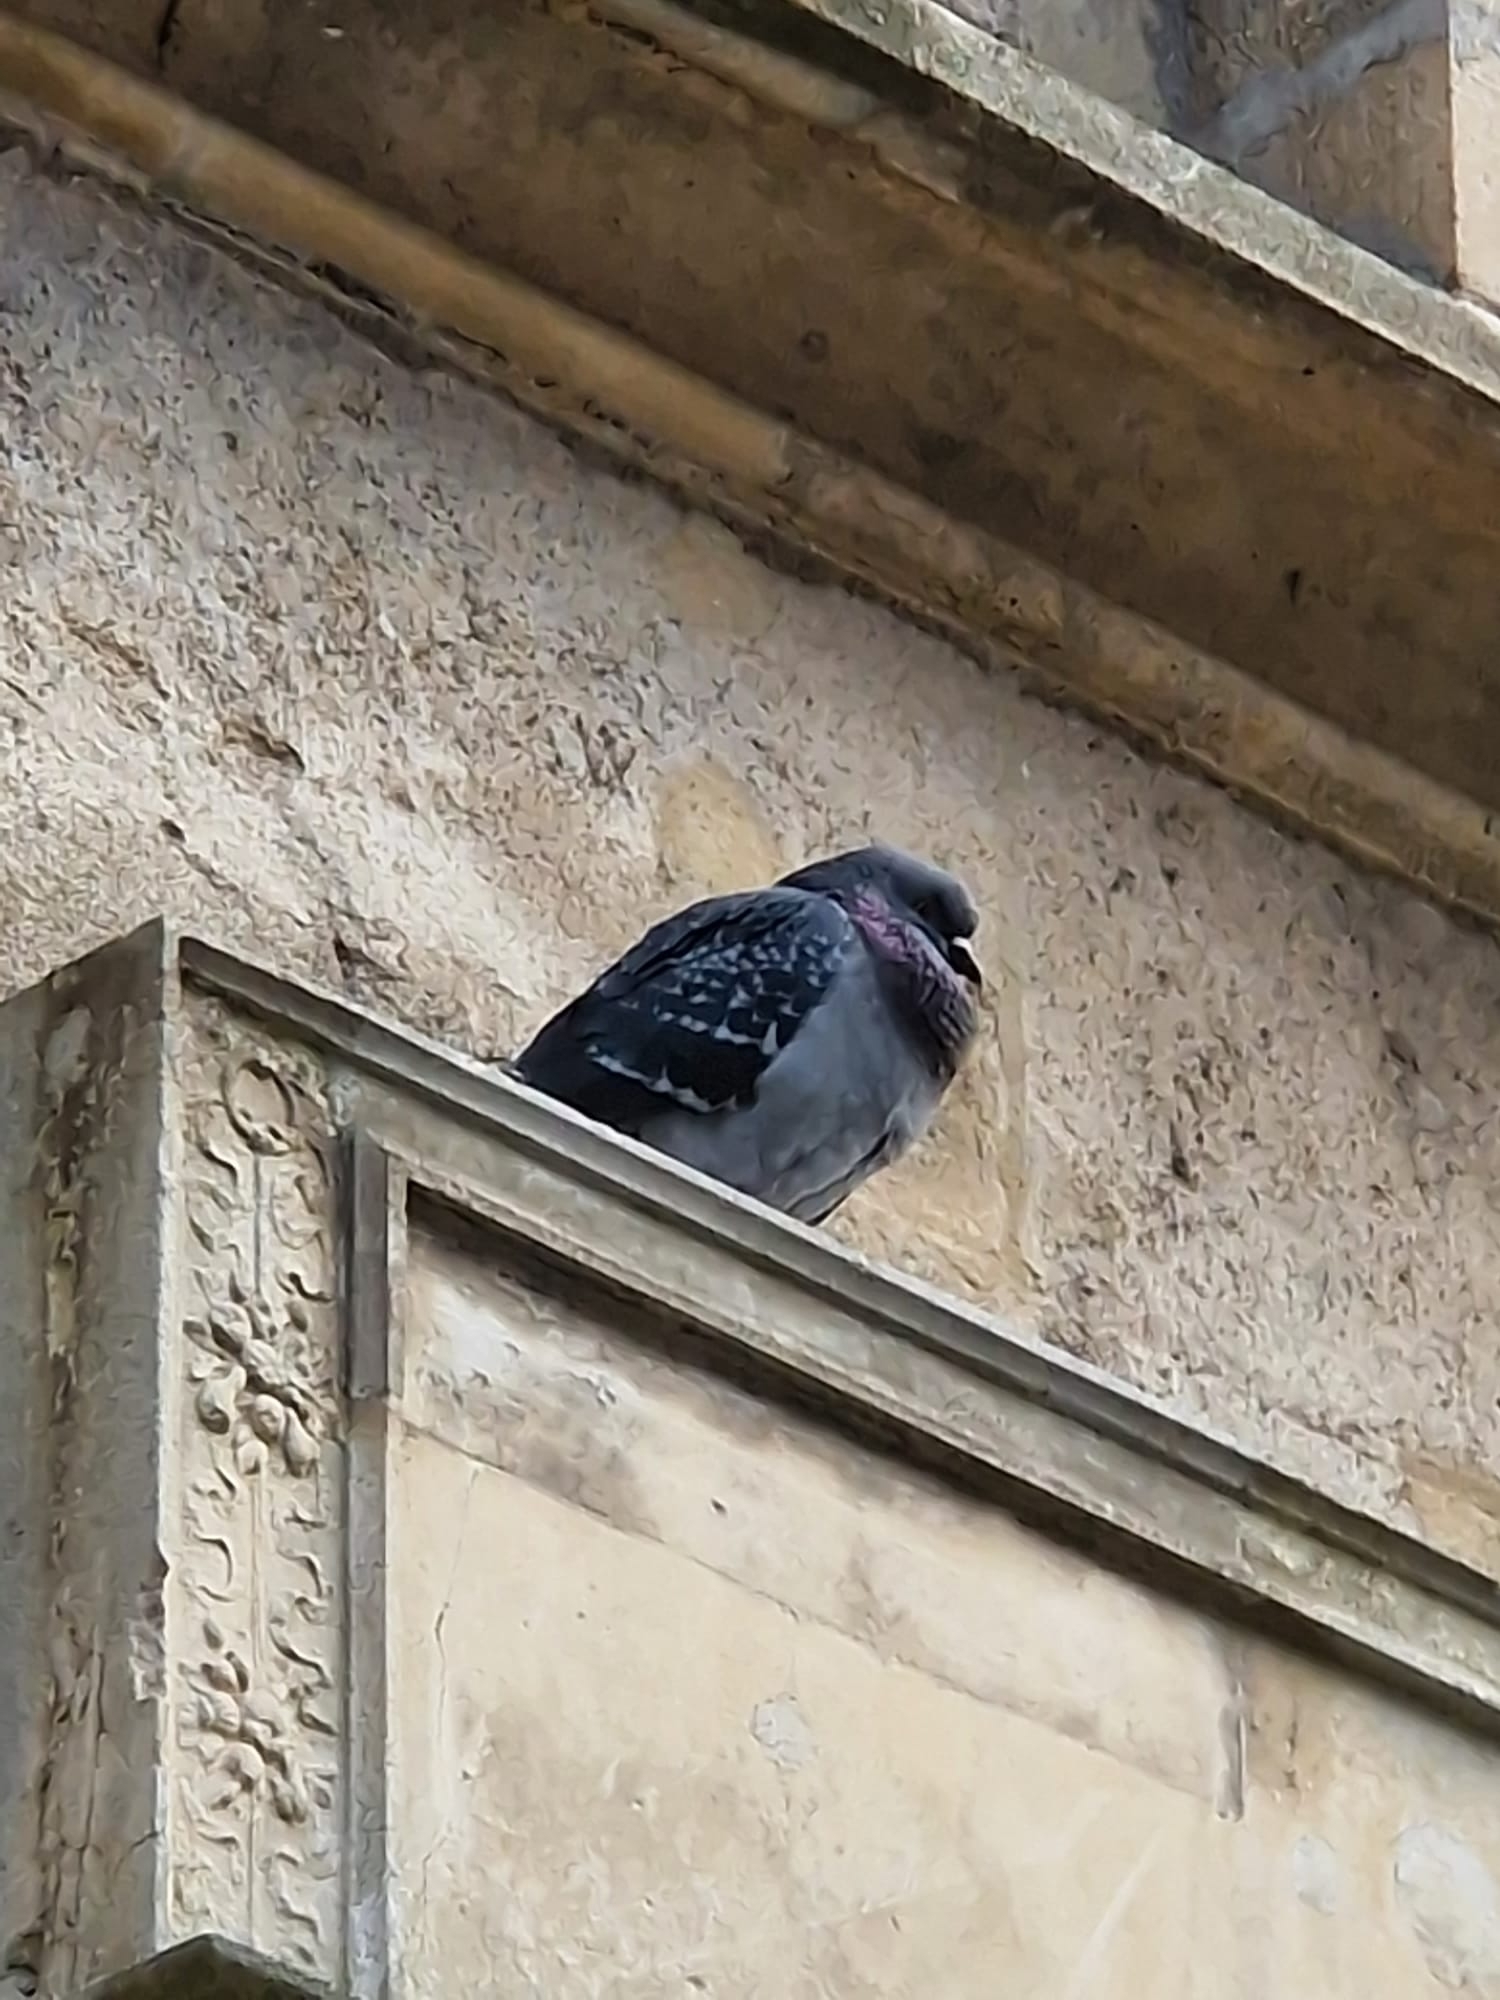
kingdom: Animalia
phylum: Chordata
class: Aves
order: Columbiformes
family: Columbidae
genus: Columba
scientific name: Columba livia
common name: Rock pigeon
